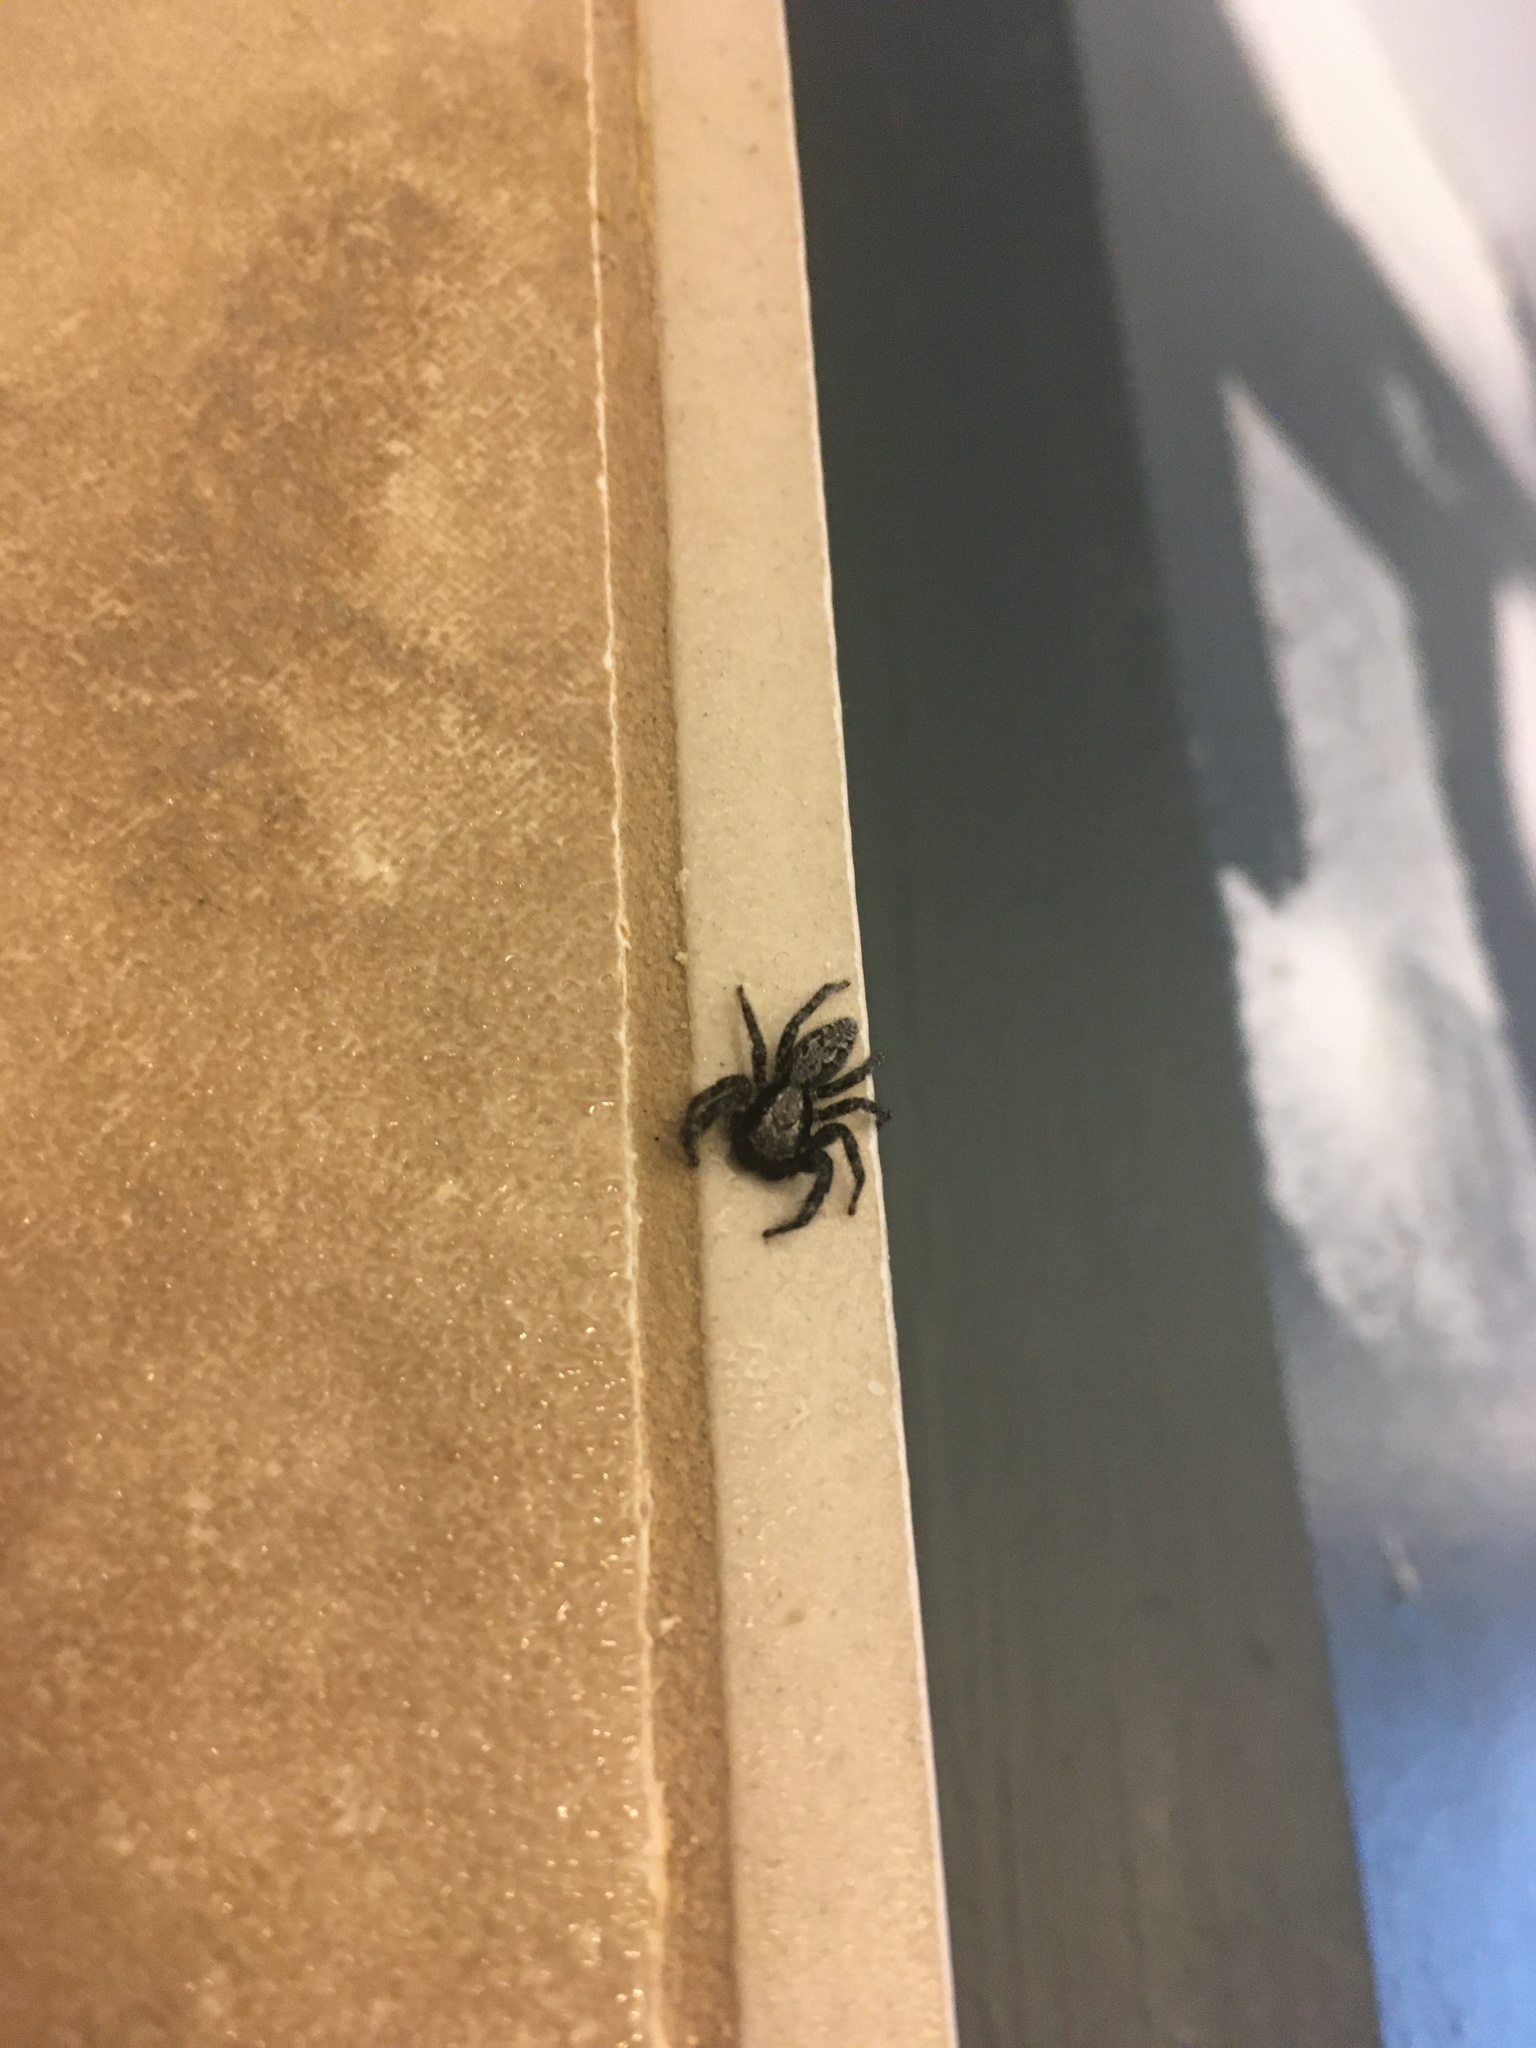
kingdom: Animalia
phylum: Arthropoda
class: Arachnida
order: Araneae
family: Salticidae
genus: Platycryptus
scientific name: Platycryptus californicus
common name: Jumping spiders
